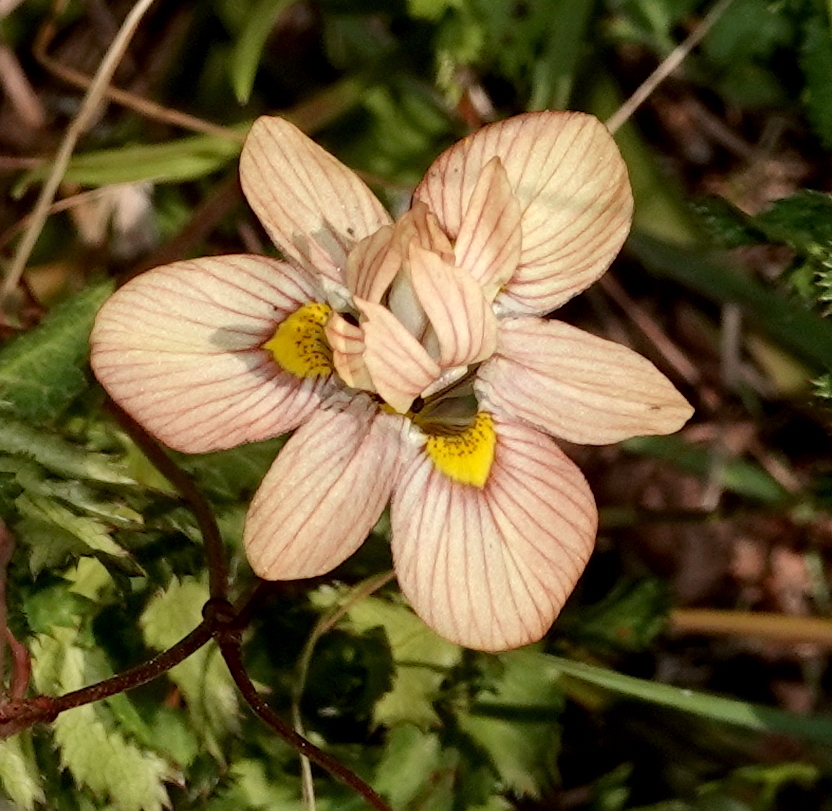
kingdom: Plantae
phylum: Tracheophyta
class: Liliopsida
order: Asparagales
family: Iridaceae
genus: Moraea
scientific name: Moraea gawleri
